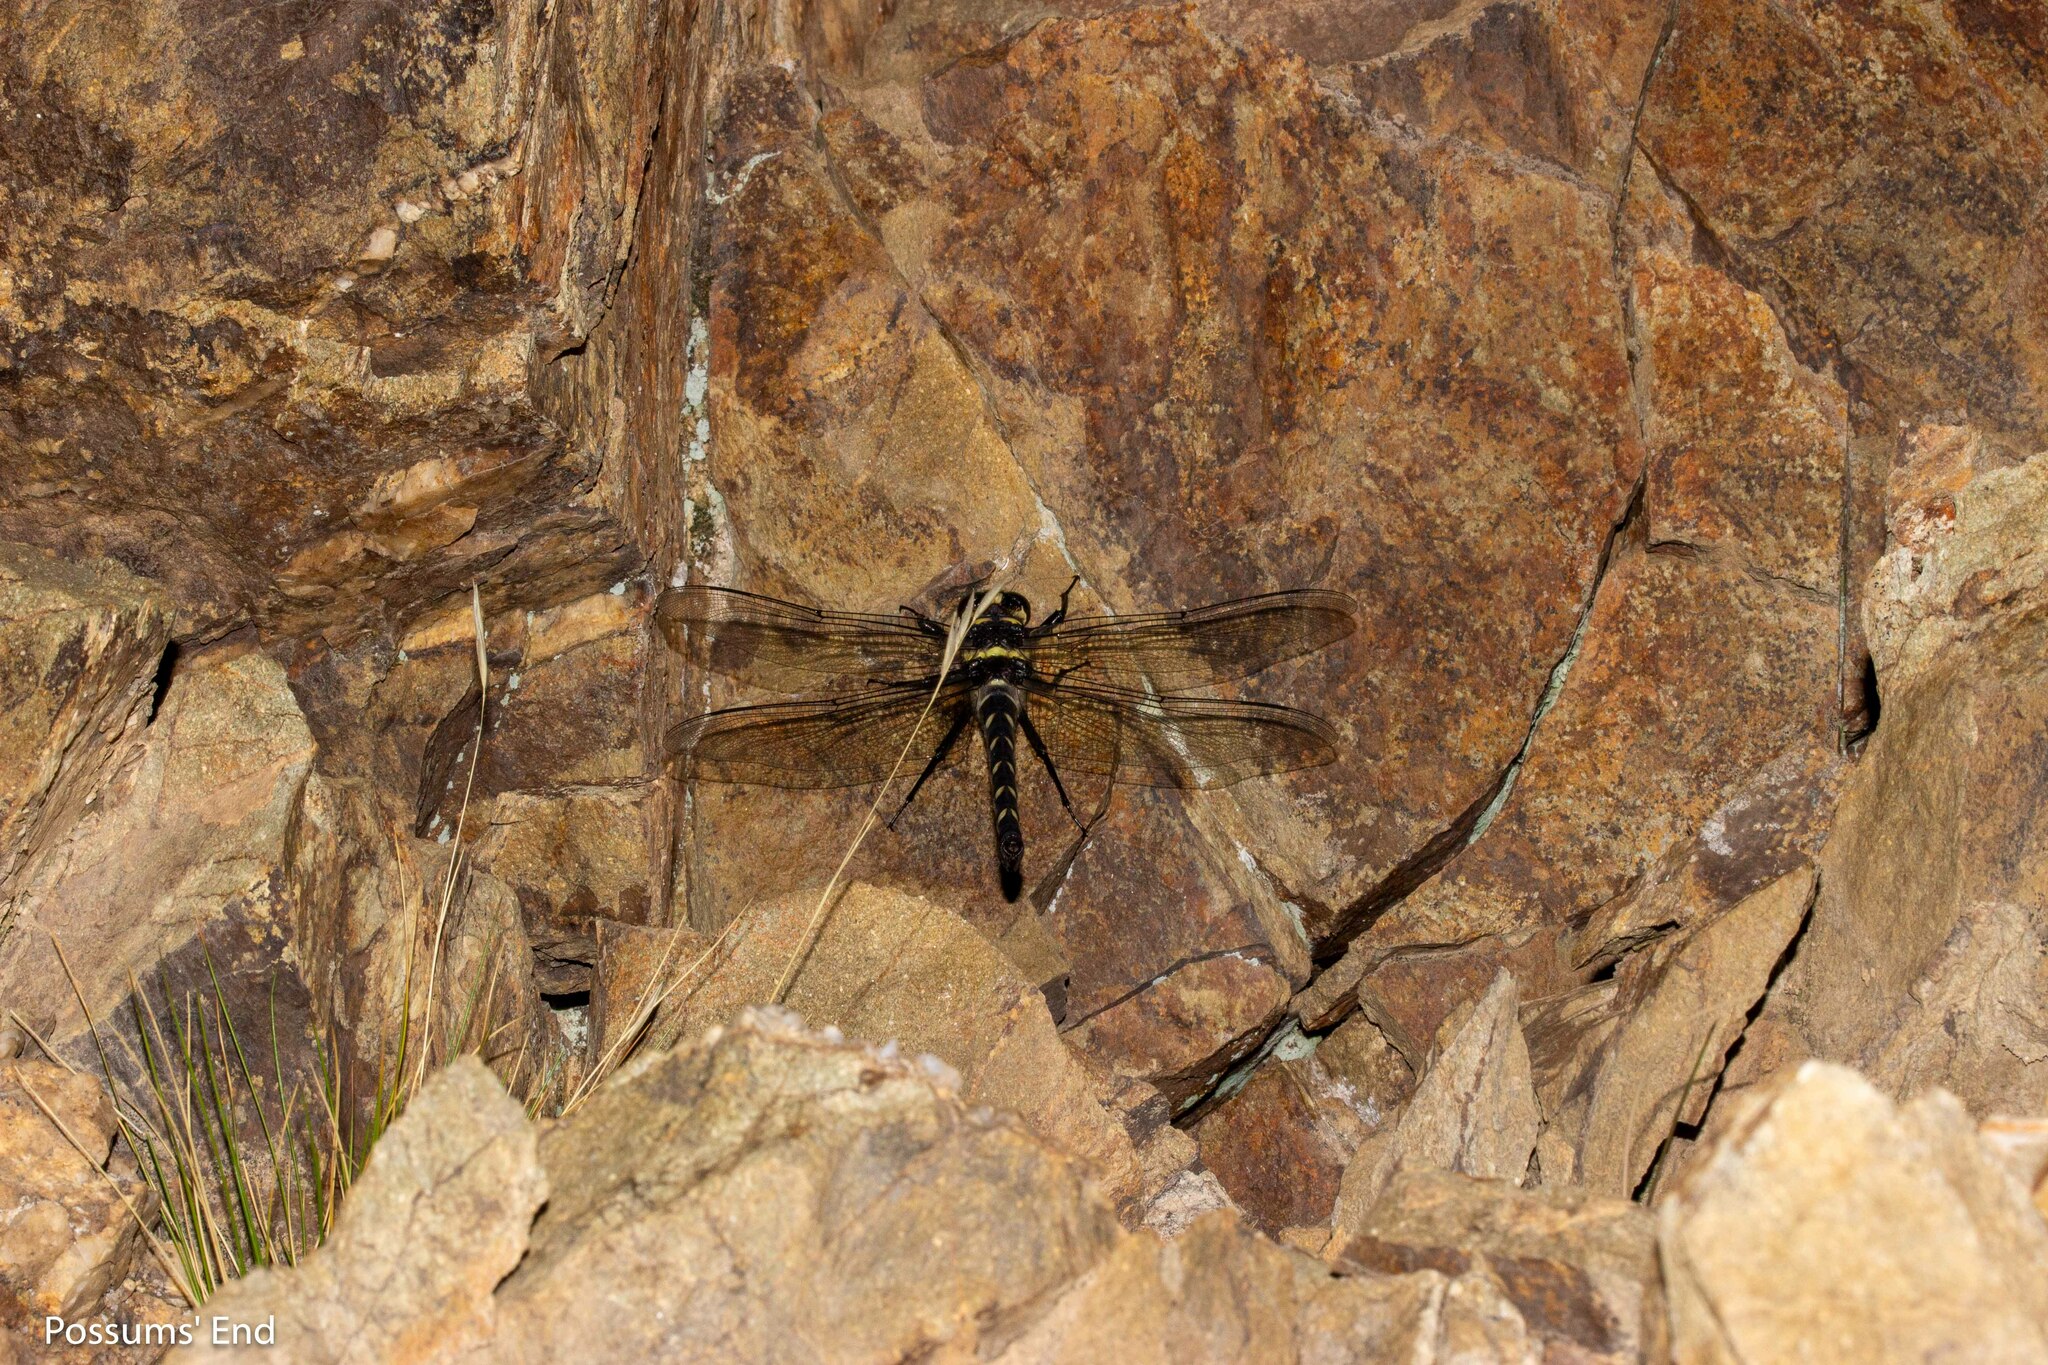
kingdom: Animalia
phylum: Arthropoda
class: Insecta
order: Odonata
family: Petaluridae
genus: Uropetala
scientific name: Uropetala chiltoni
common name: Mountain giant dragonfly
